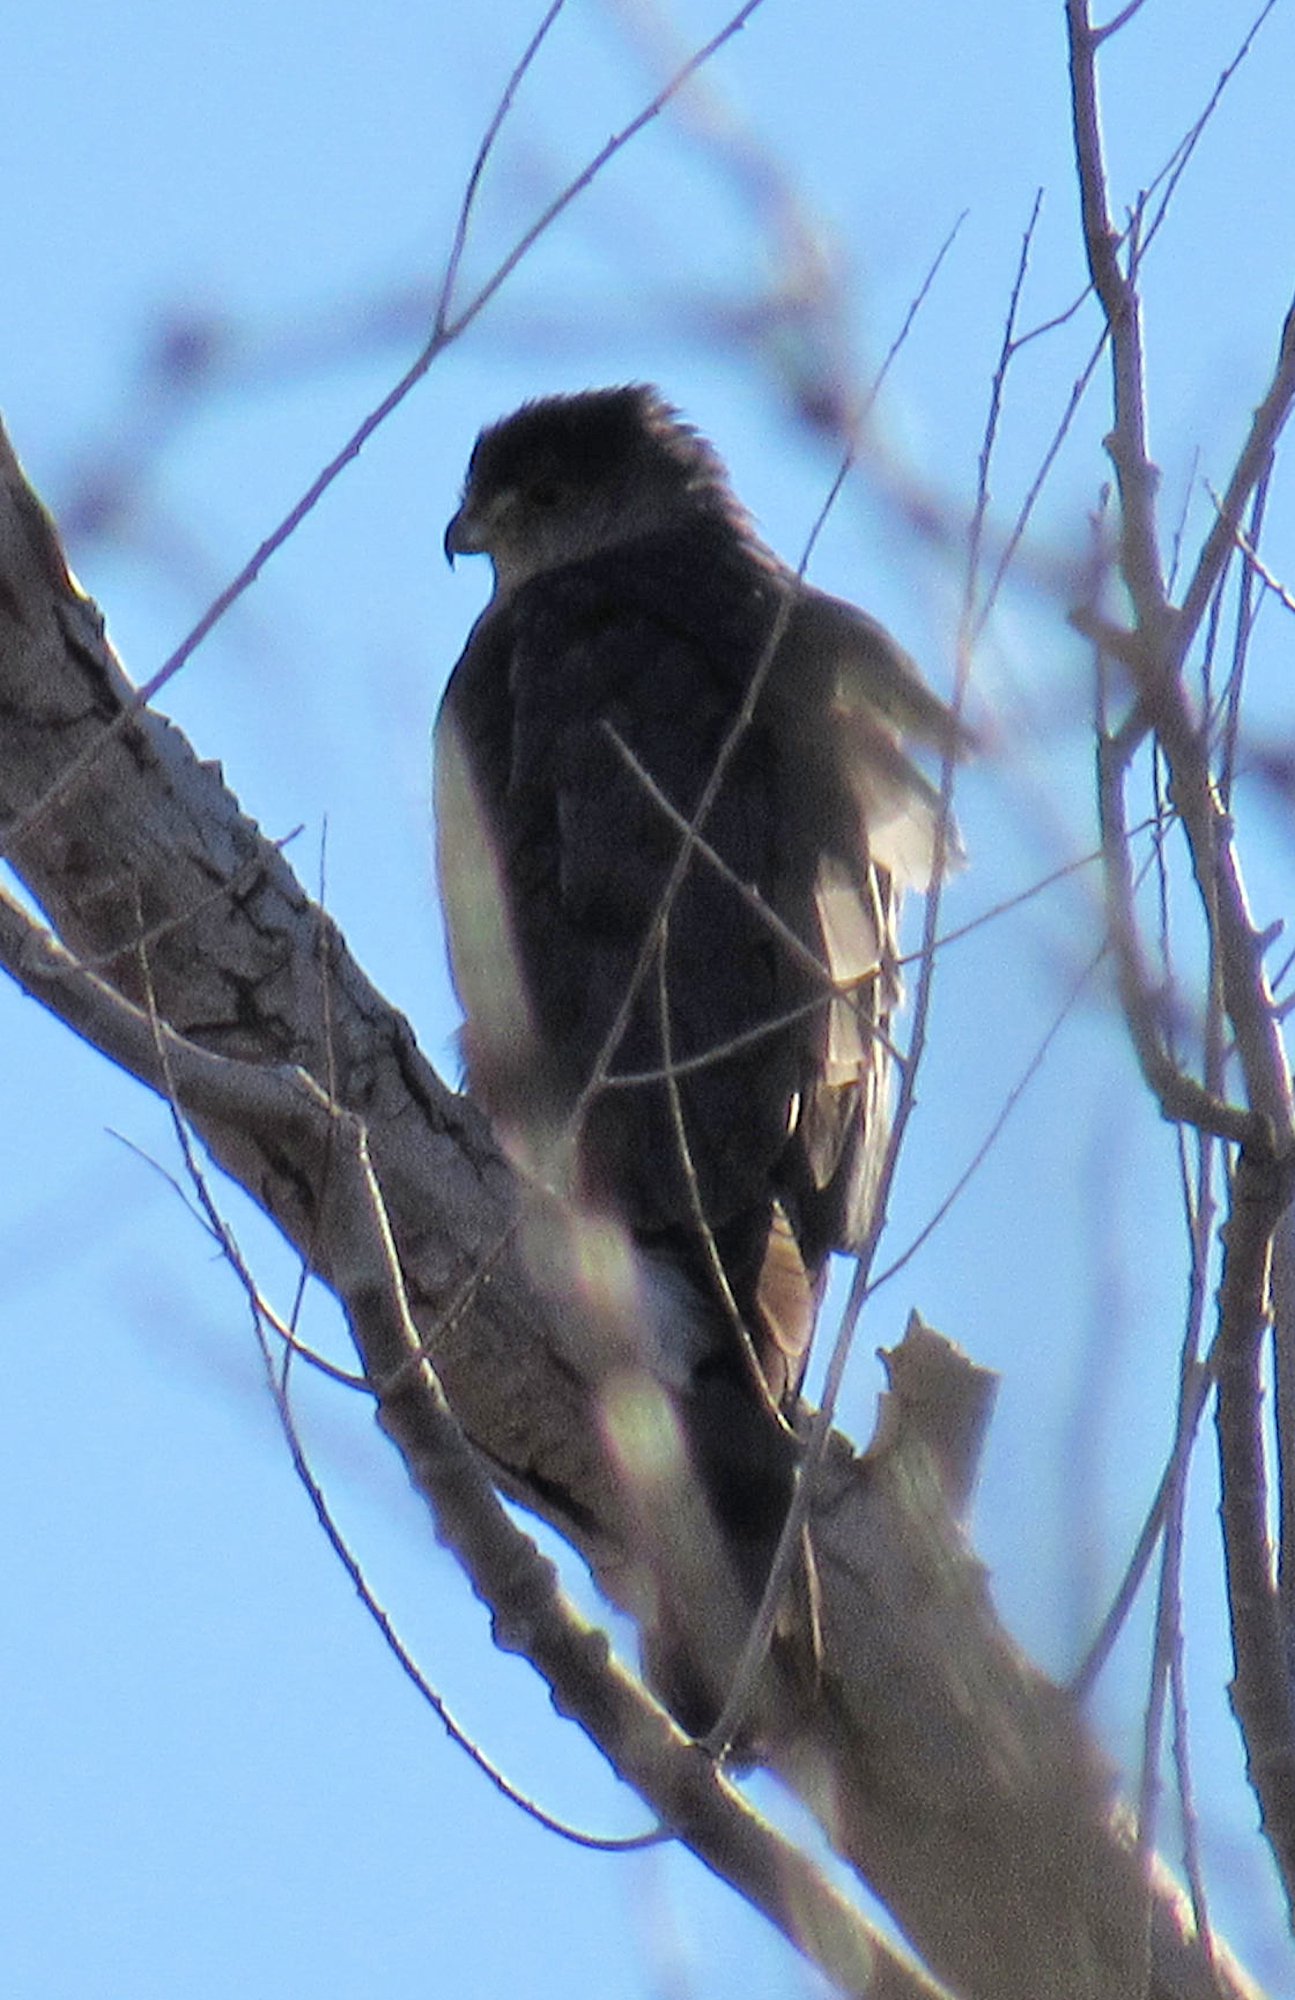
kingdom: Animalia
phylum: Chordata
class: Aves
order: Accipitriformes
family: Accipitridae
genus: Accipiter
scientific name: Accipiter cooperii
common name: Cooper's hawk
